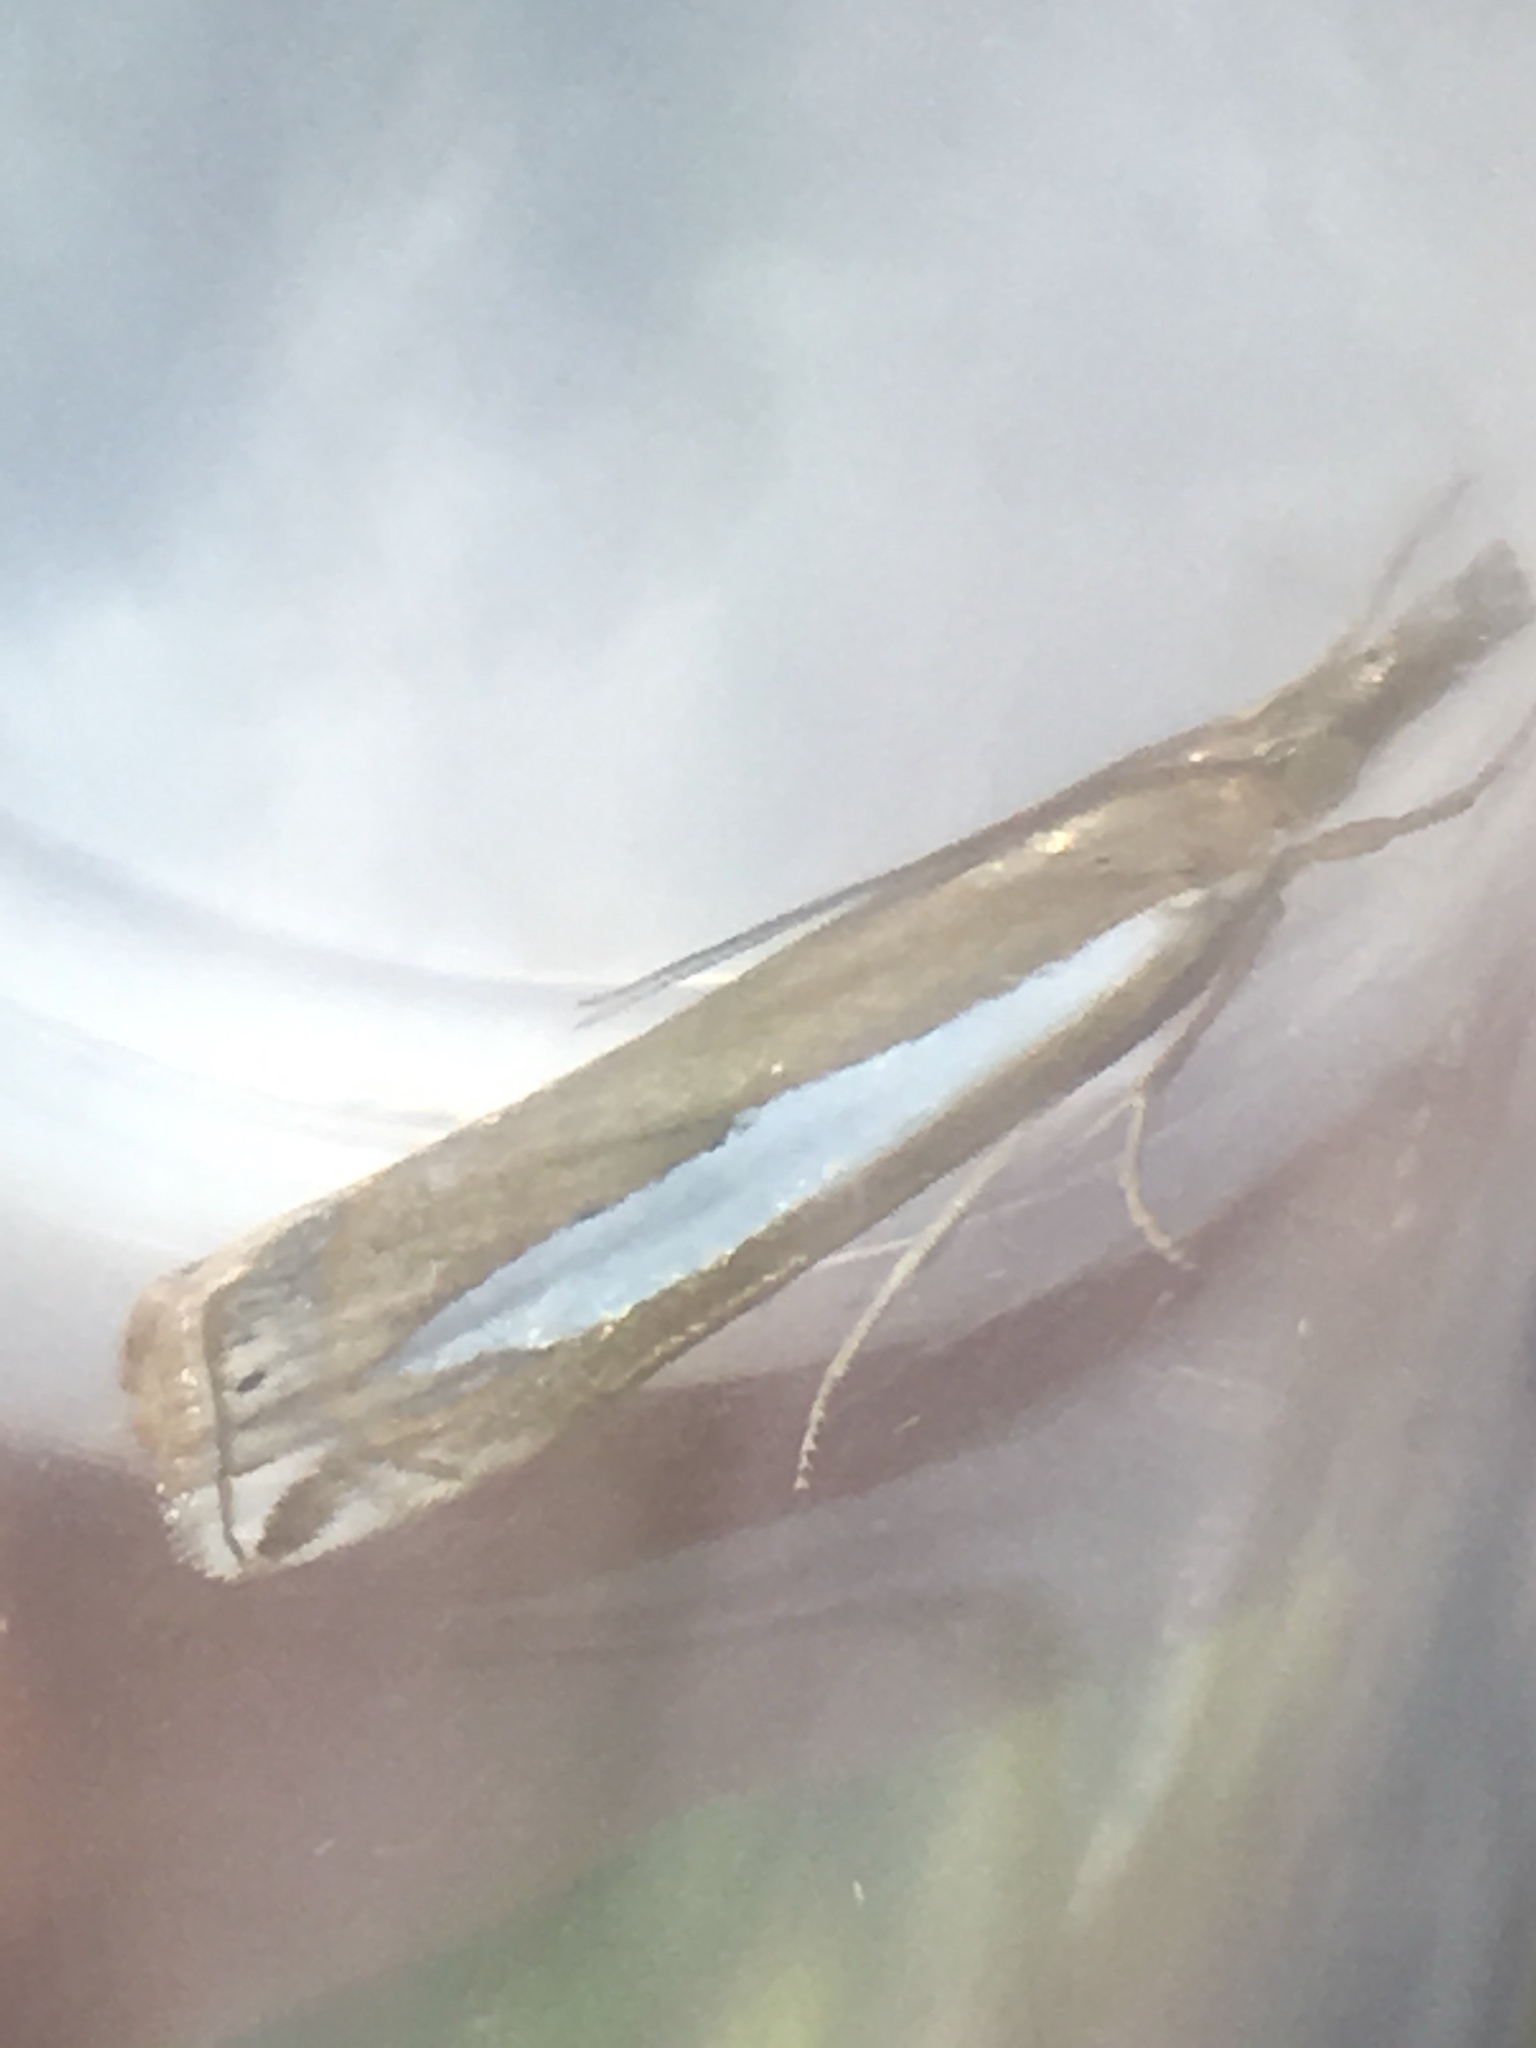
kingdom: Animalia
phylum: Arthropoda
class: Insecta
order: Lepidoptera
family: Crambidae
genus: Crambus
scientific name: Crambus praefectellus
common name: Common grass-veneer
